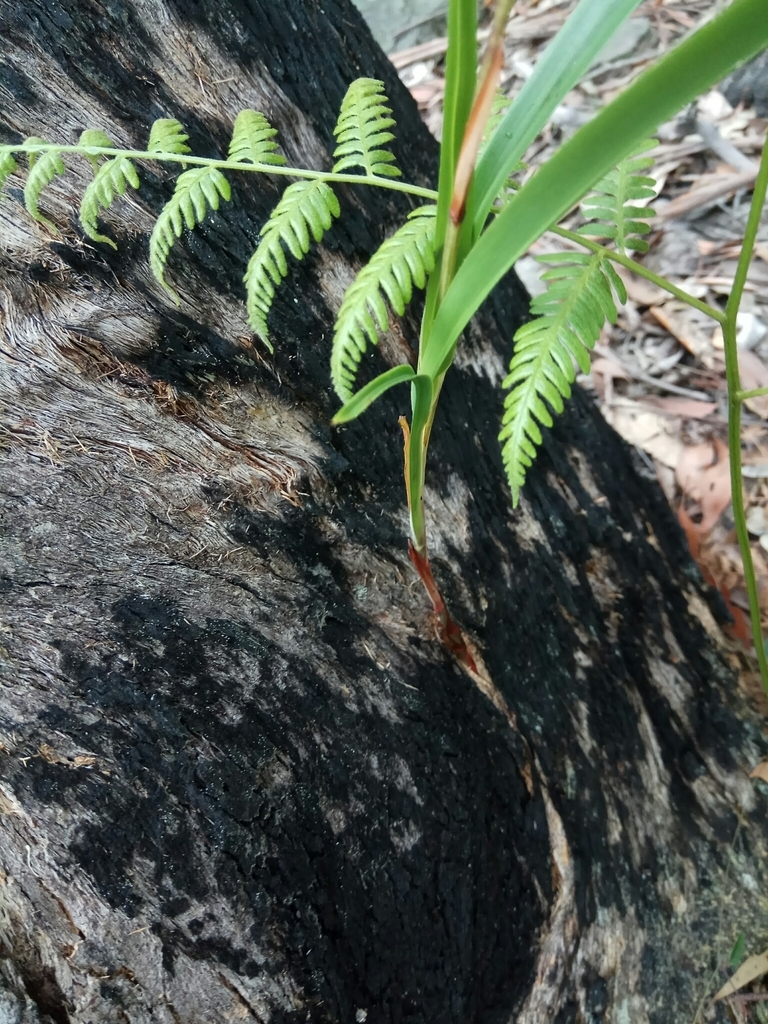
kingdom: Plantae
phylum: Tracheophyta
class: Polypodiopsida
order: Polypodiales
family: Dennstaedtiaceae
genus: Pteridium
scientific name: Pteridium esculentum
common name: Bracken fern
